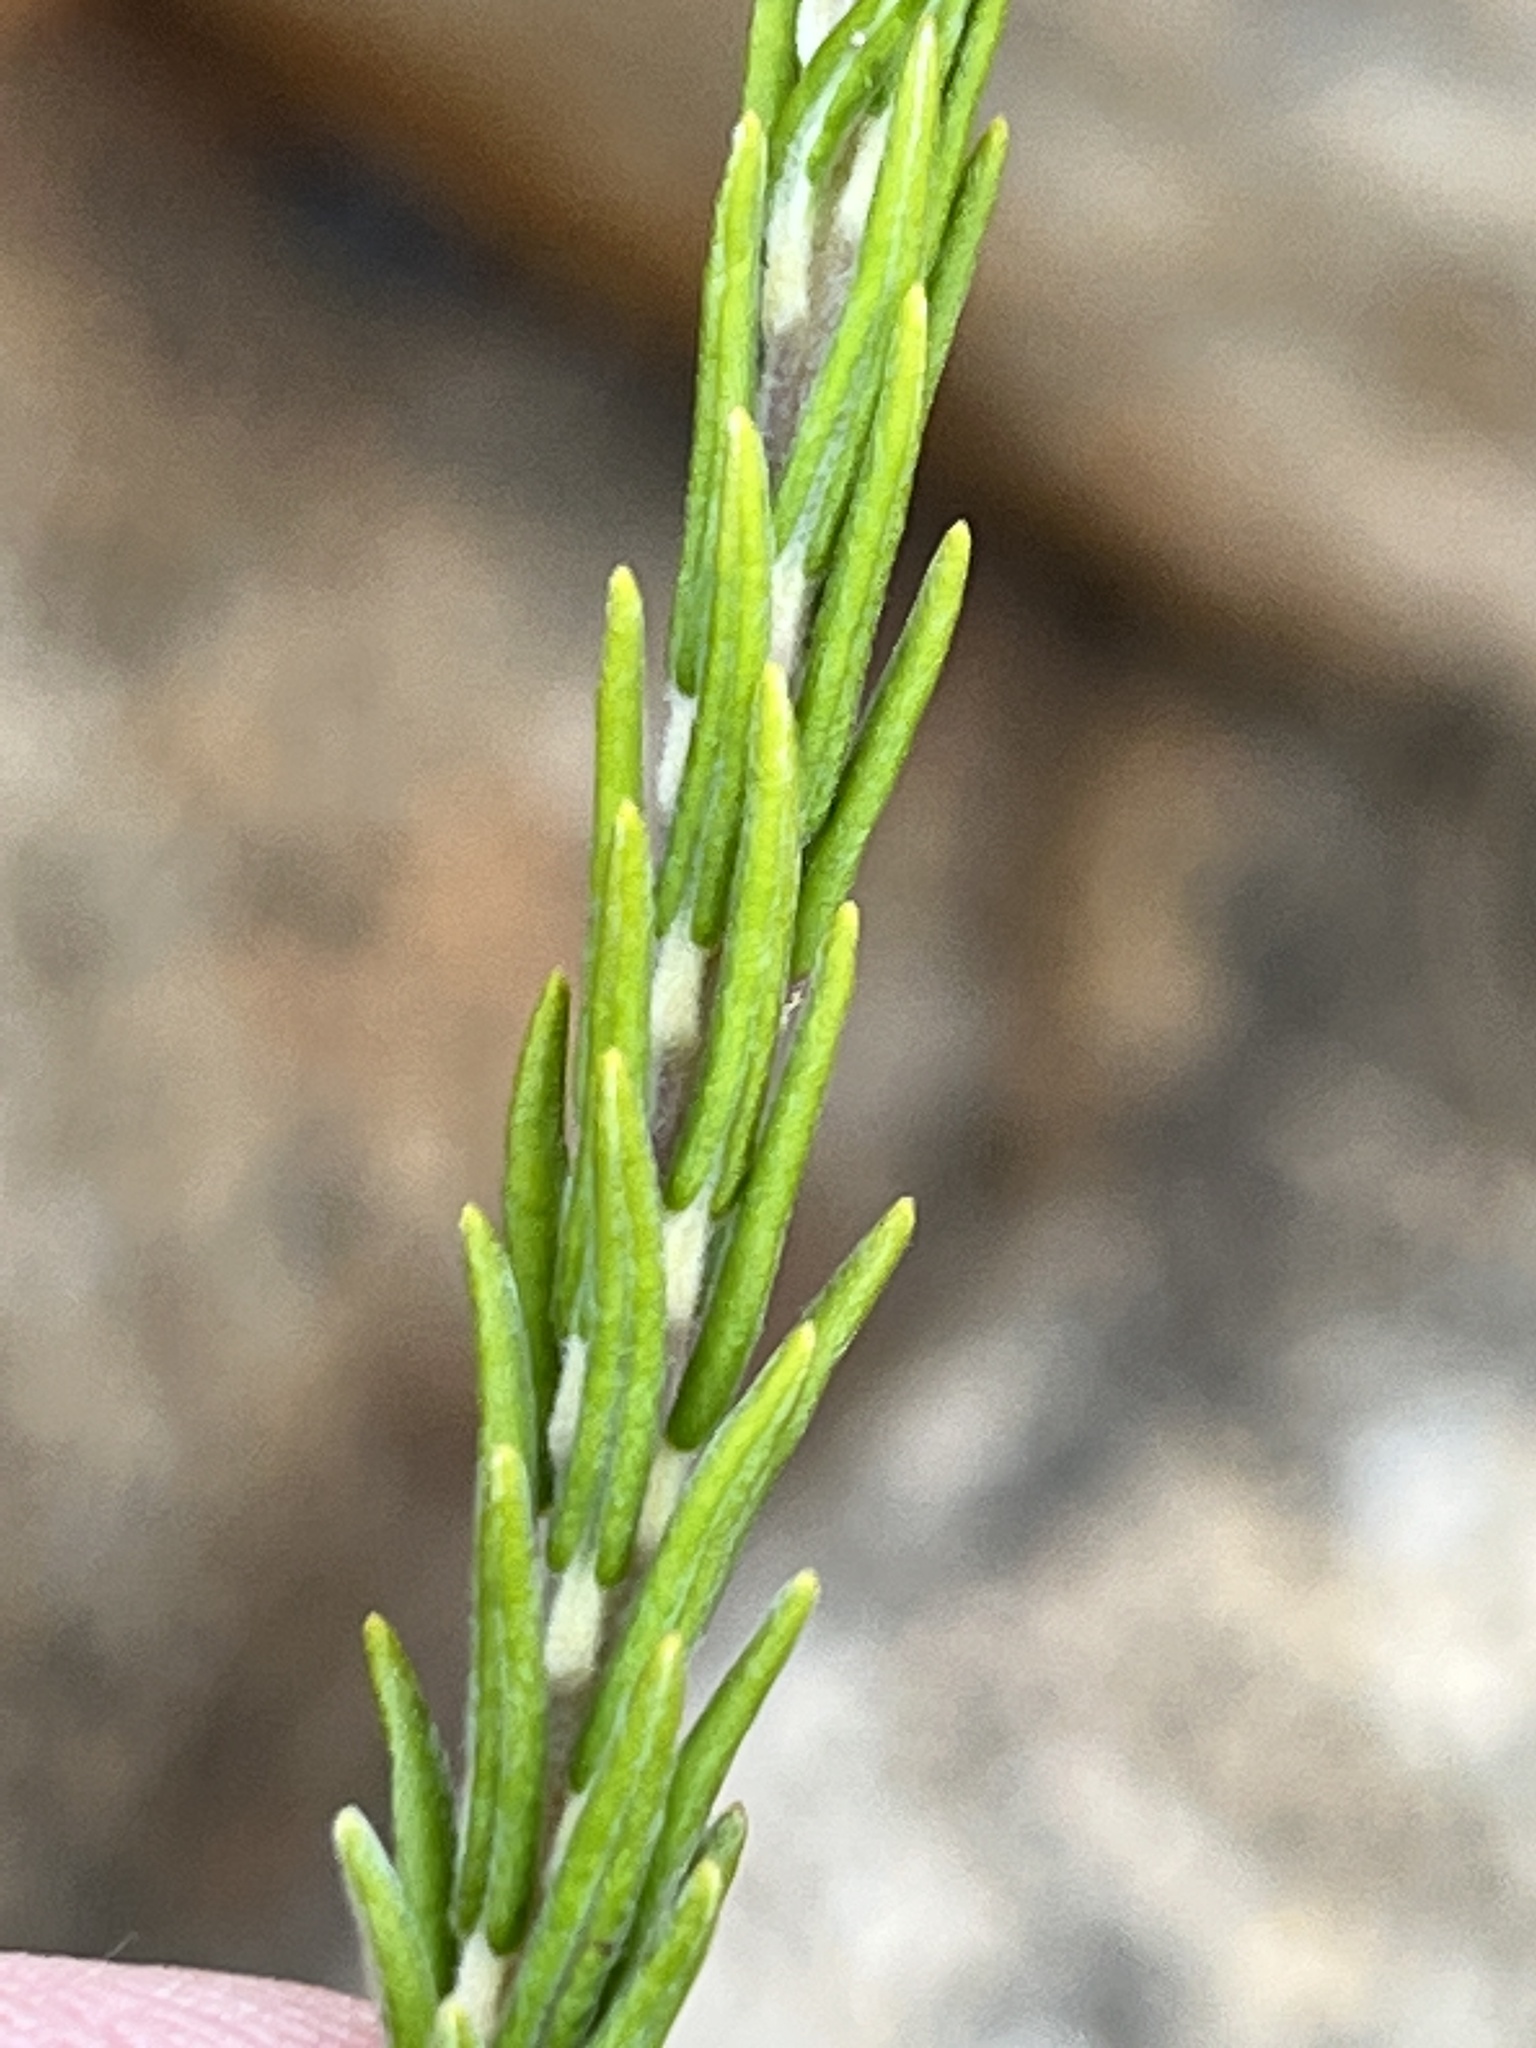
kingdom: Plantae
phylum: Tracheophyta
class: Magnoliopsida
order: Rosales
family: Rhamnaceae
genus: Phylica
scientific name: Phylica lanata
